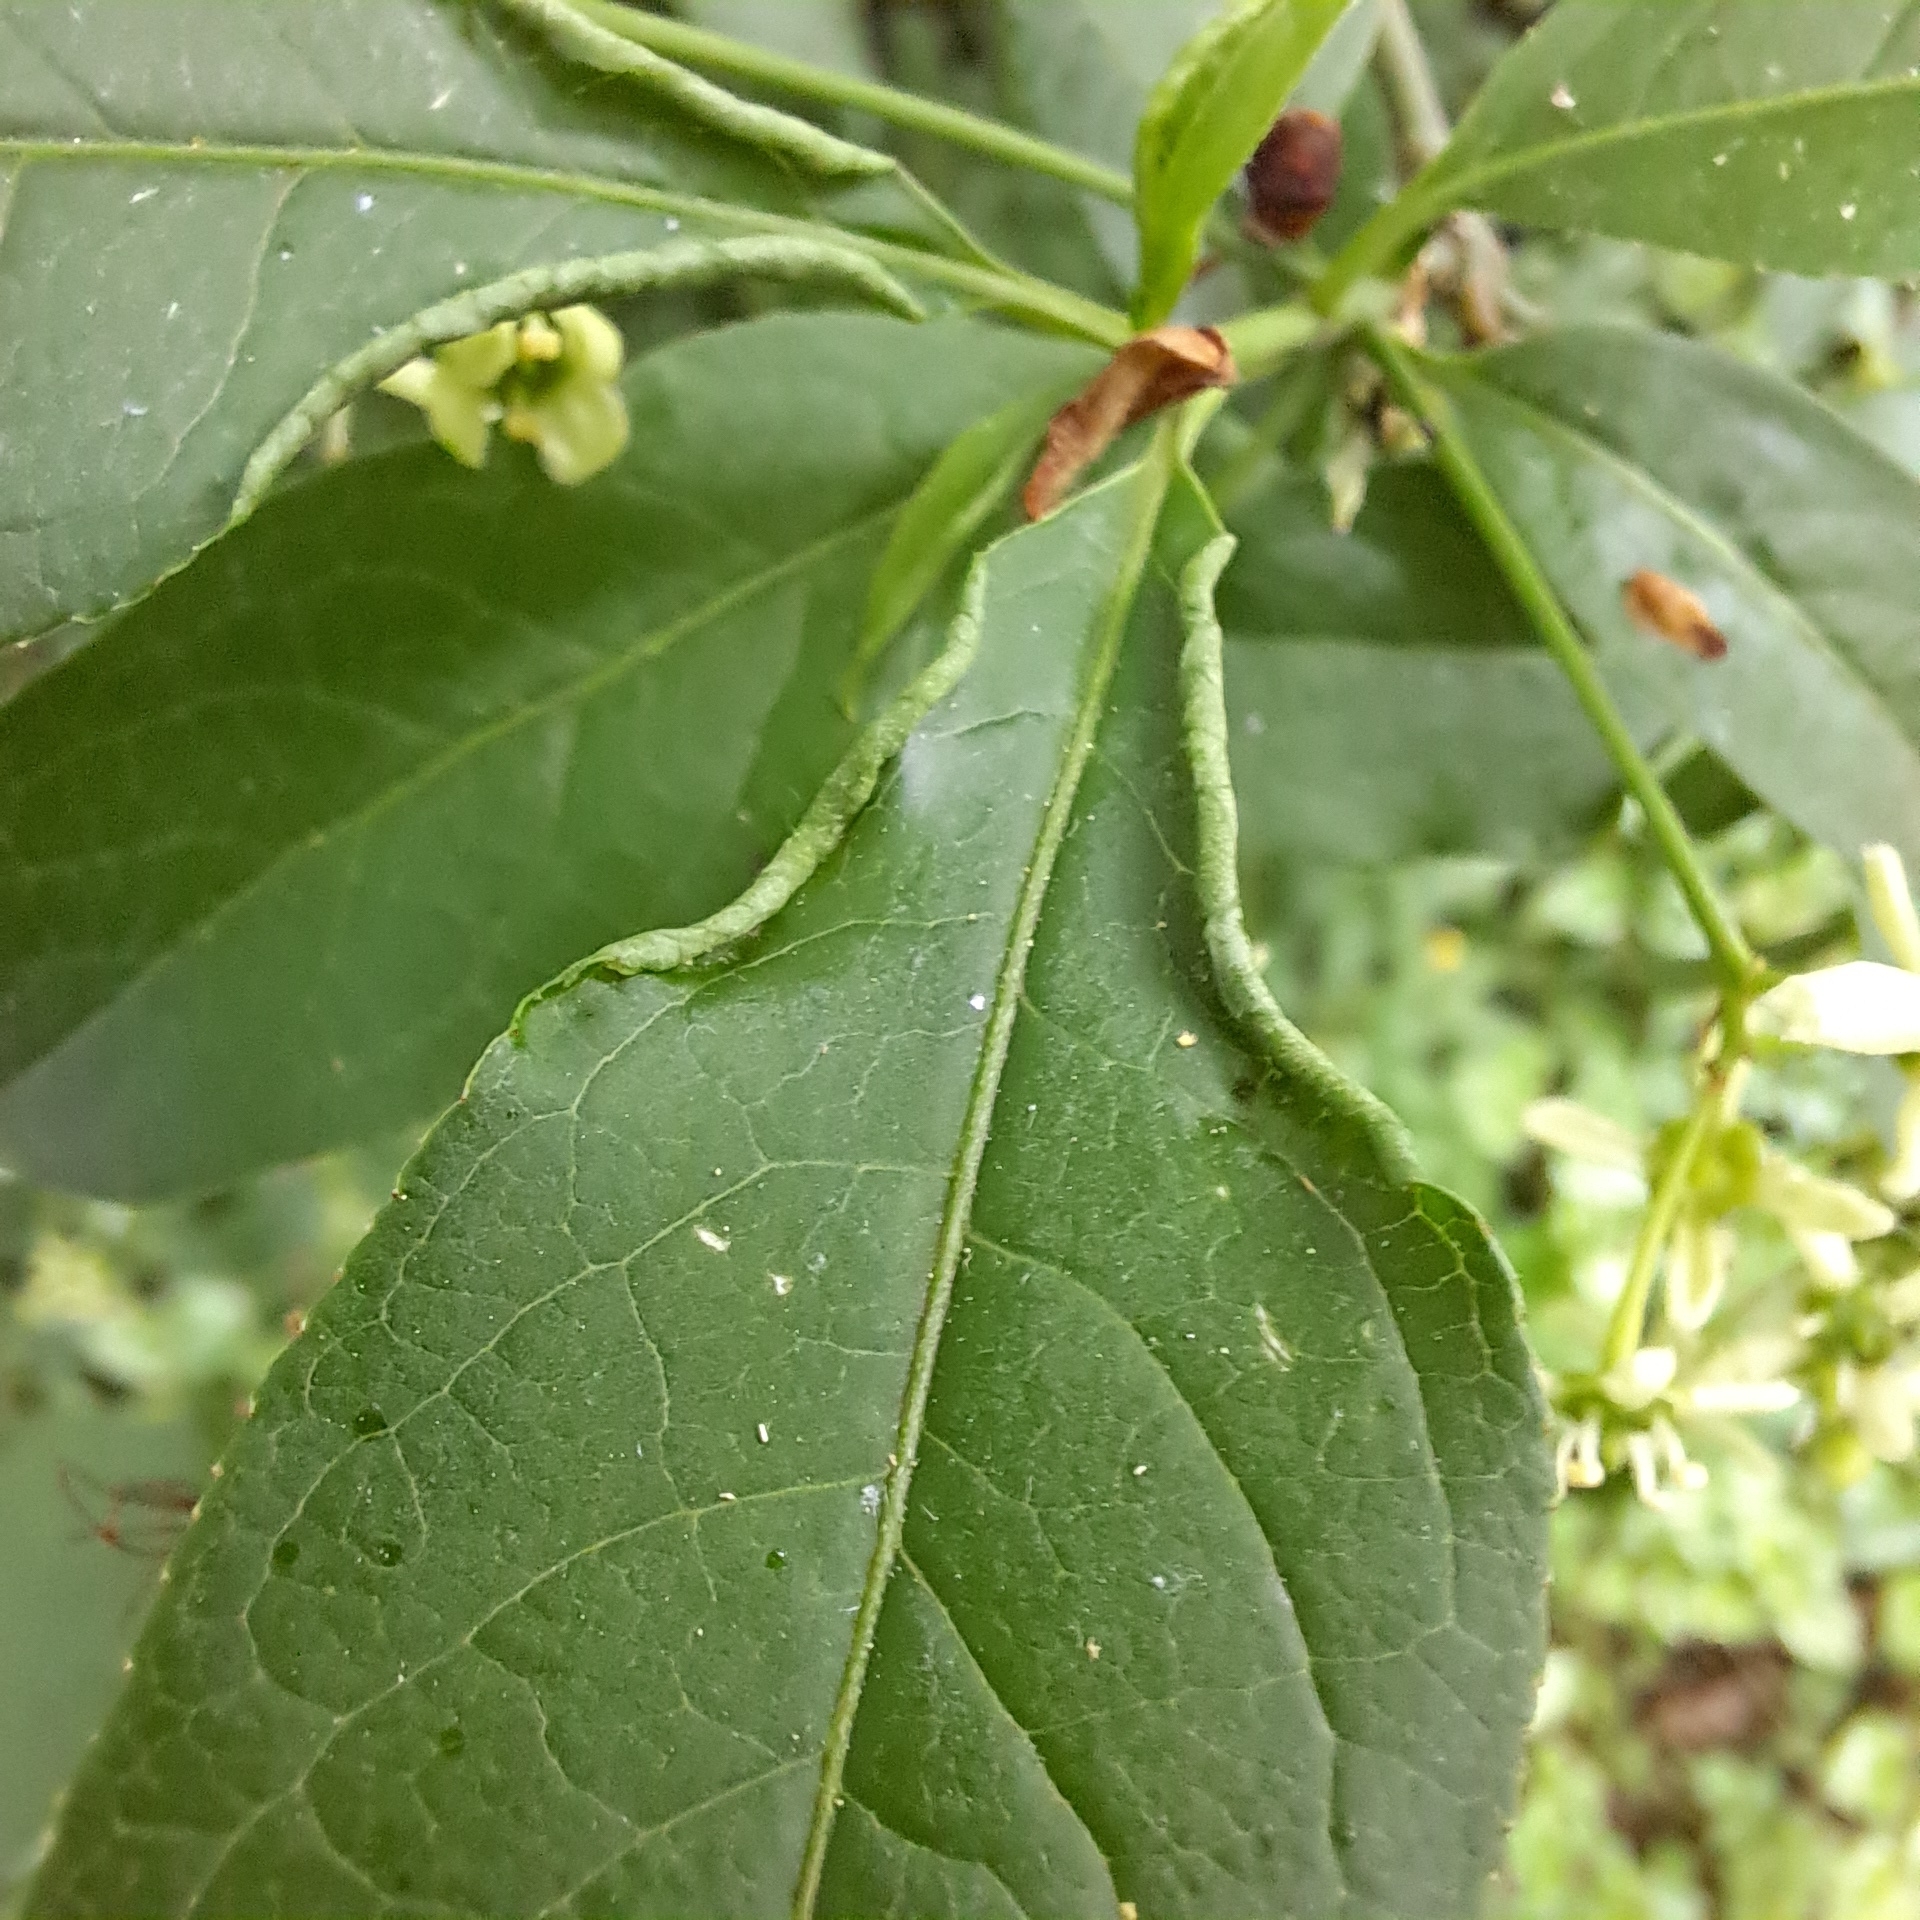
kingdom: Animalia
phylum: Arthropoda
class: Arachnida
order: Trombidiformes
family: Eriophyidae
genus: Stenacis
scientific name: Stenacis evonymi
